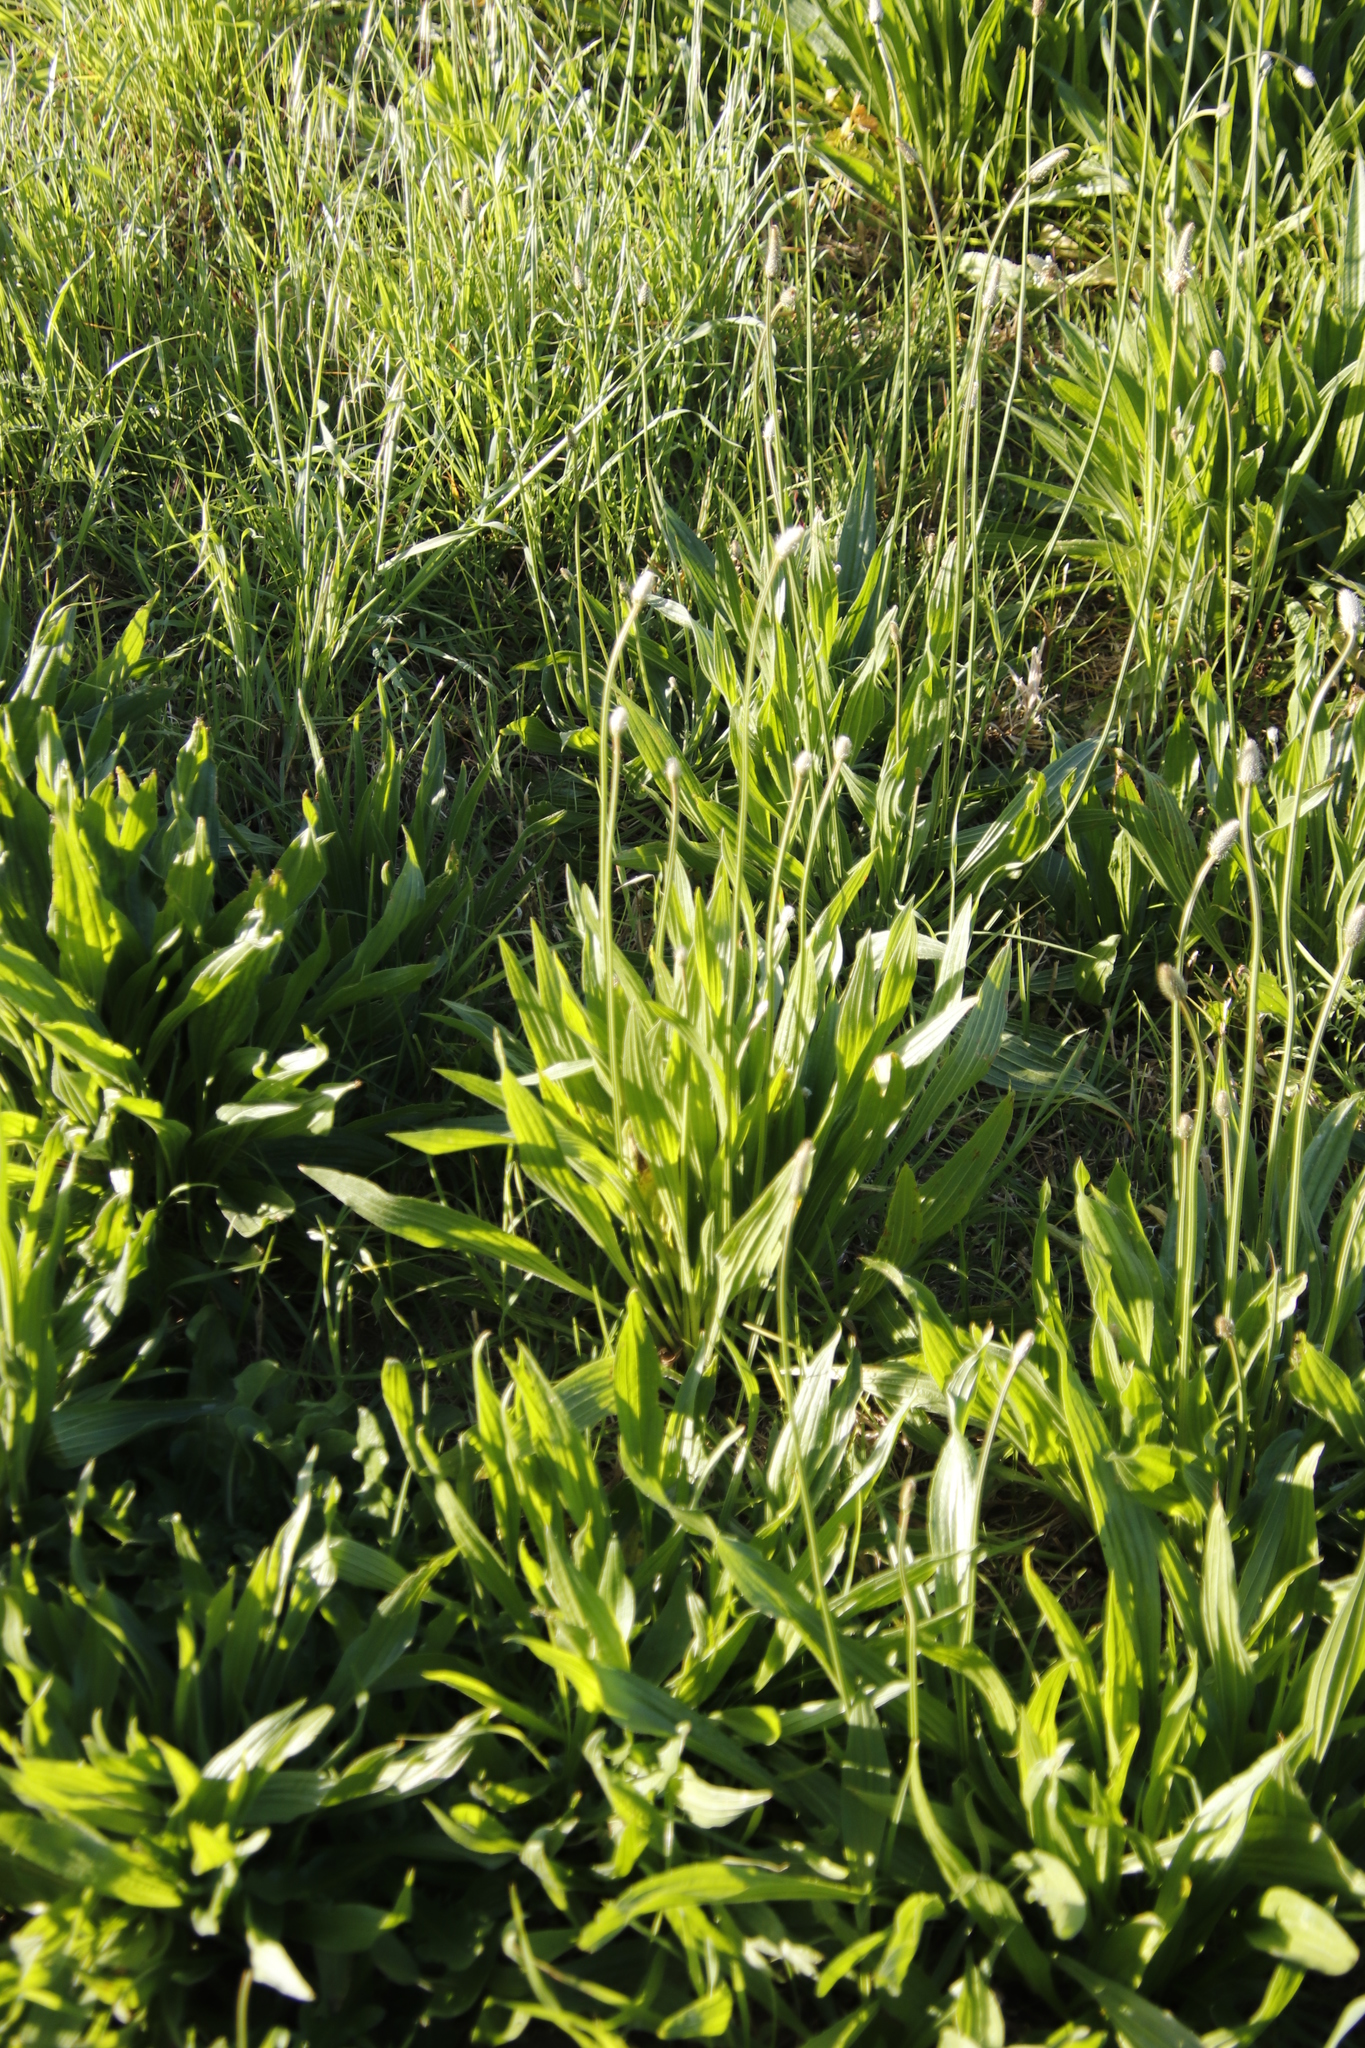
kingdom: Plantae
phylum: Tracheophyta
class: Magnoliopsida
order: Lamiales
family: Plantaginaceae
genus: Plantago
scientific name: Plantago lanceolata
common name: Ribwort plantain
